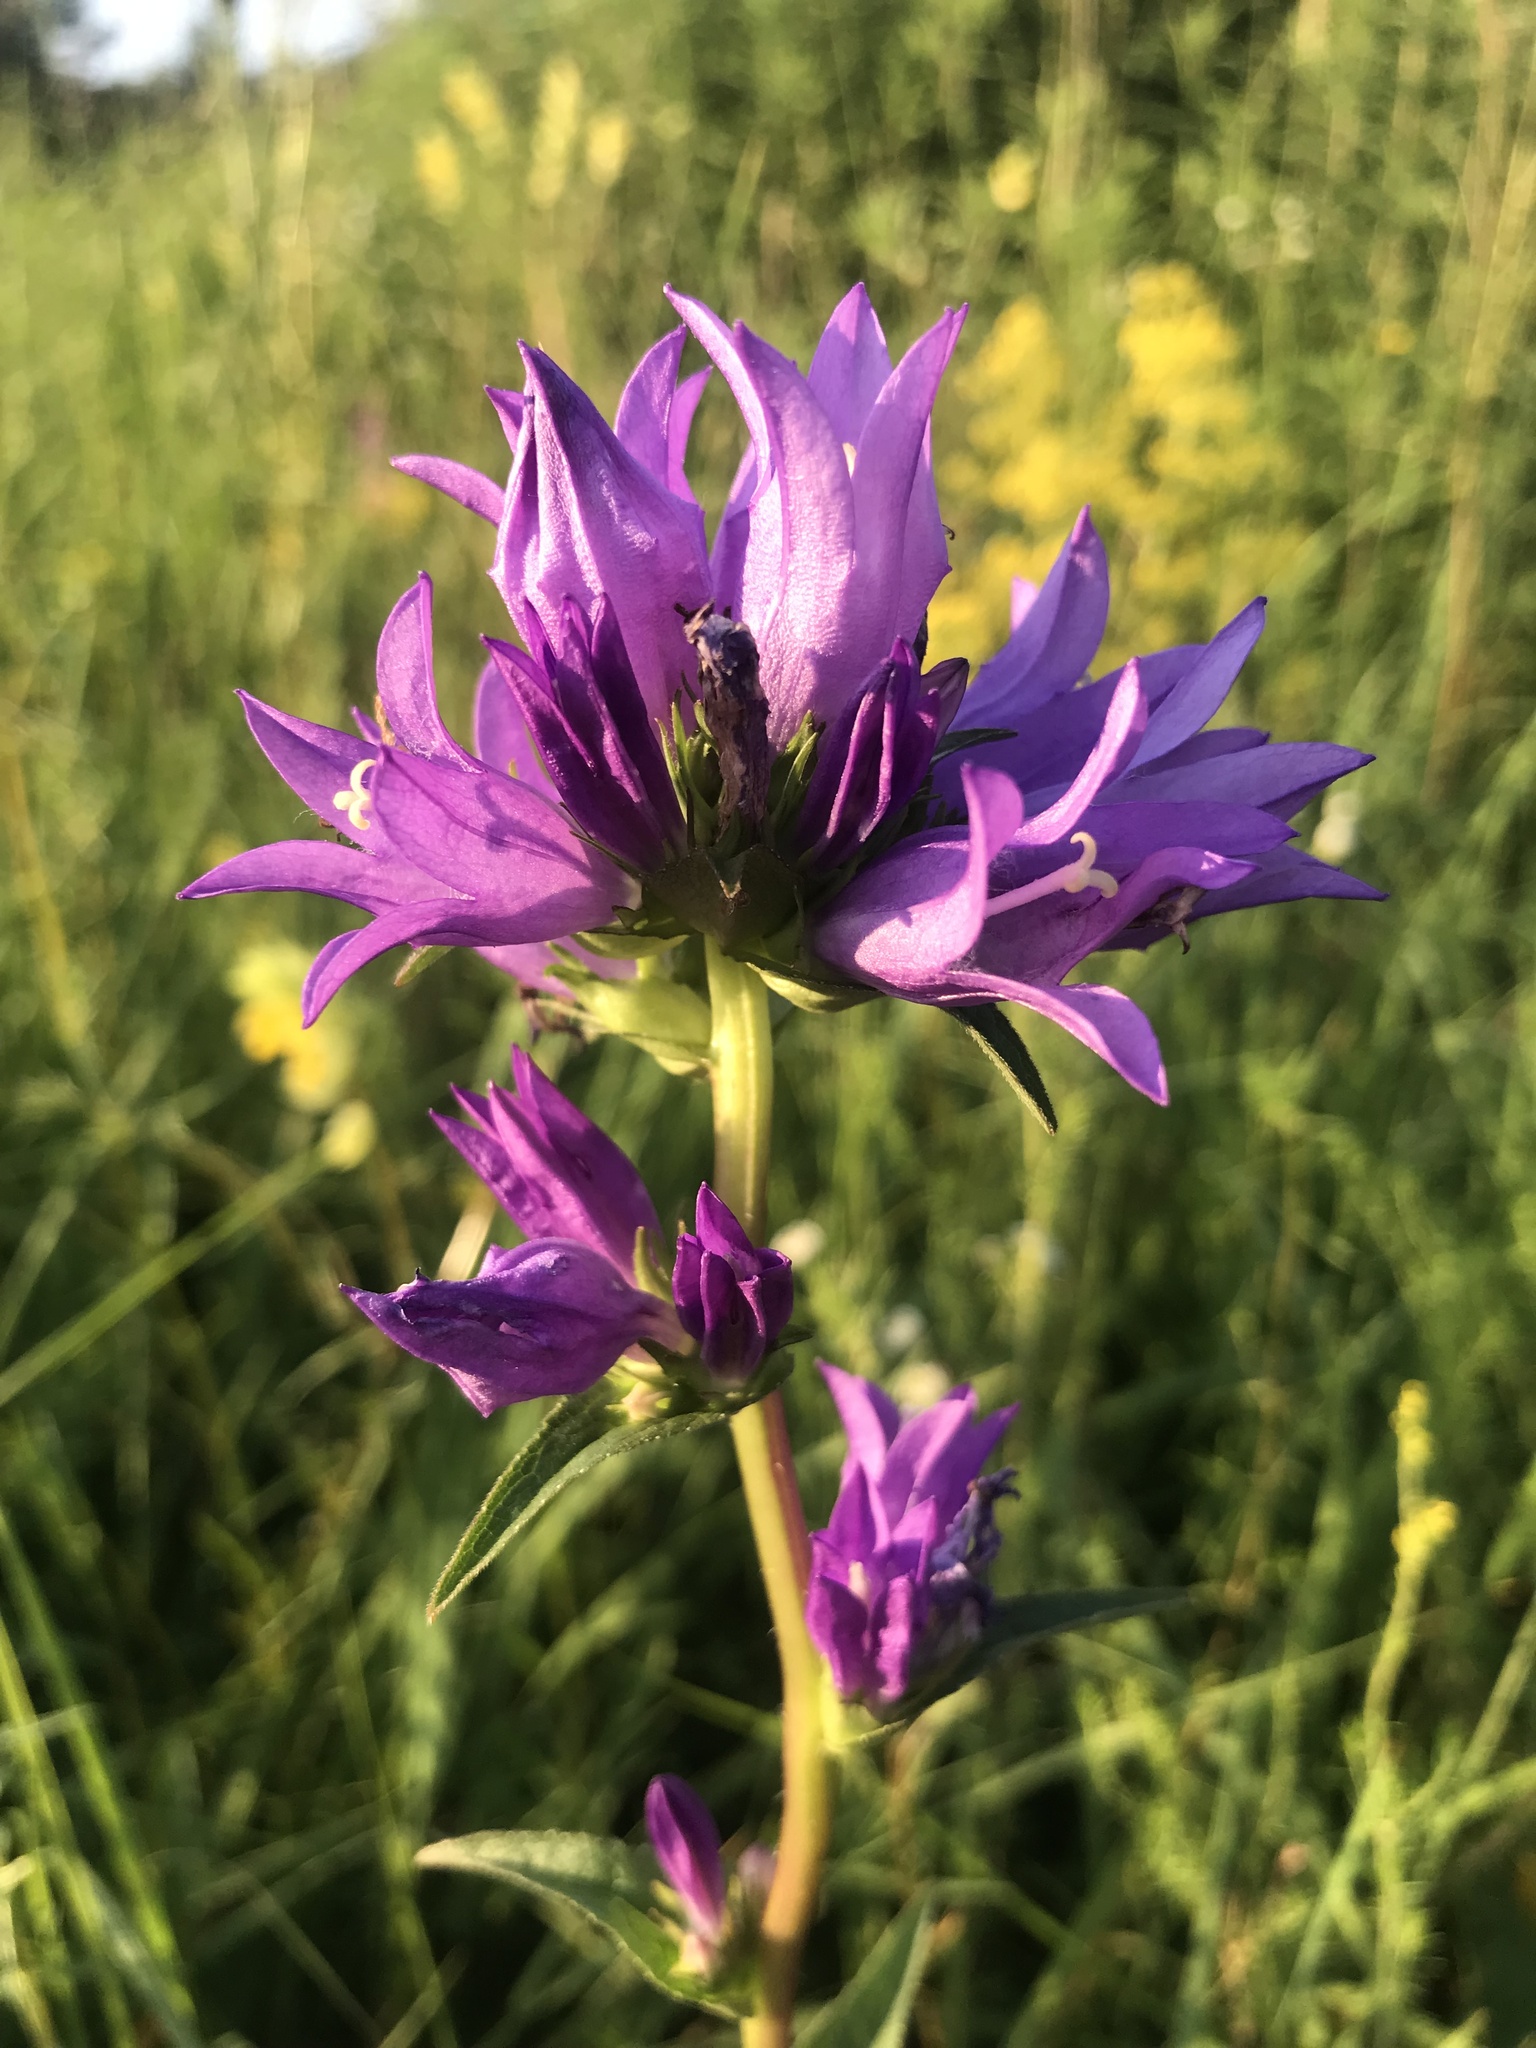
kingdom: Plantae
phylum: Tracheophyta
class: Magnoliopsida
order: Asterales
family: Campanulaceae
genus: Campanula
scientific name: Campanula glomerata
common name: Clustered bellflower
